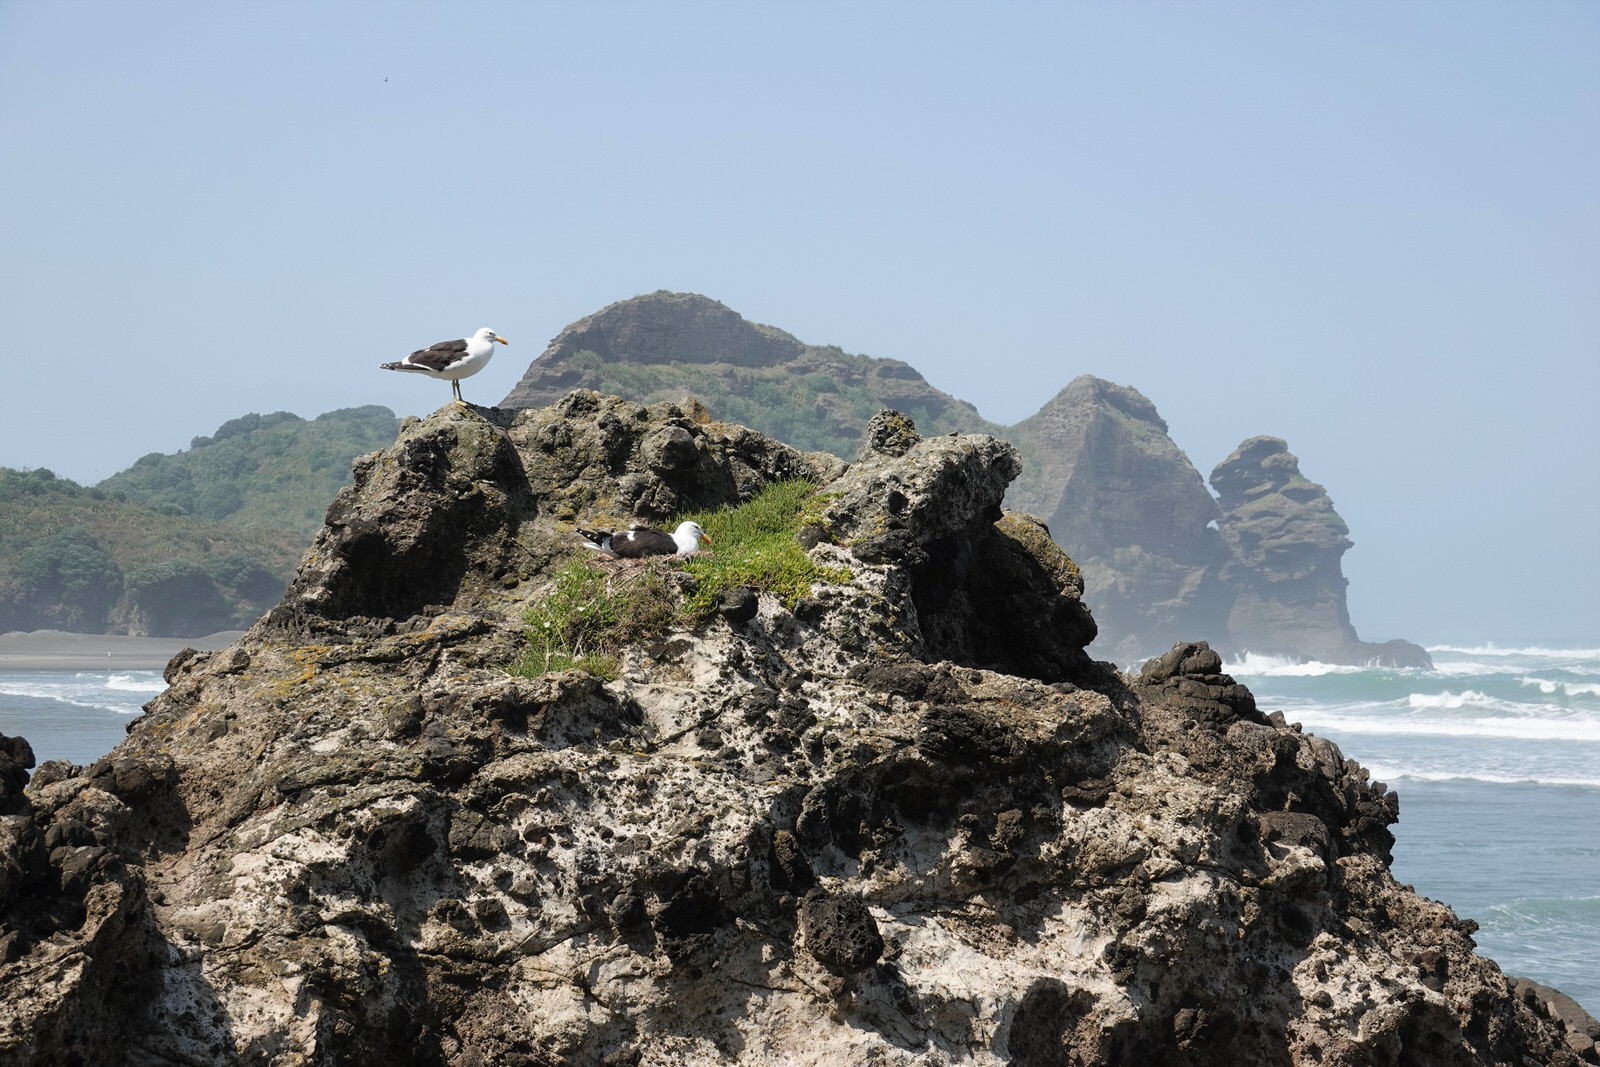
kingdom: Animalia
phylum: Chordata
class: Aves
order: Charadriiformes
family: Laridae
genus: Larus
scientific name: Larus dominicanus
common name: Kelp gull
